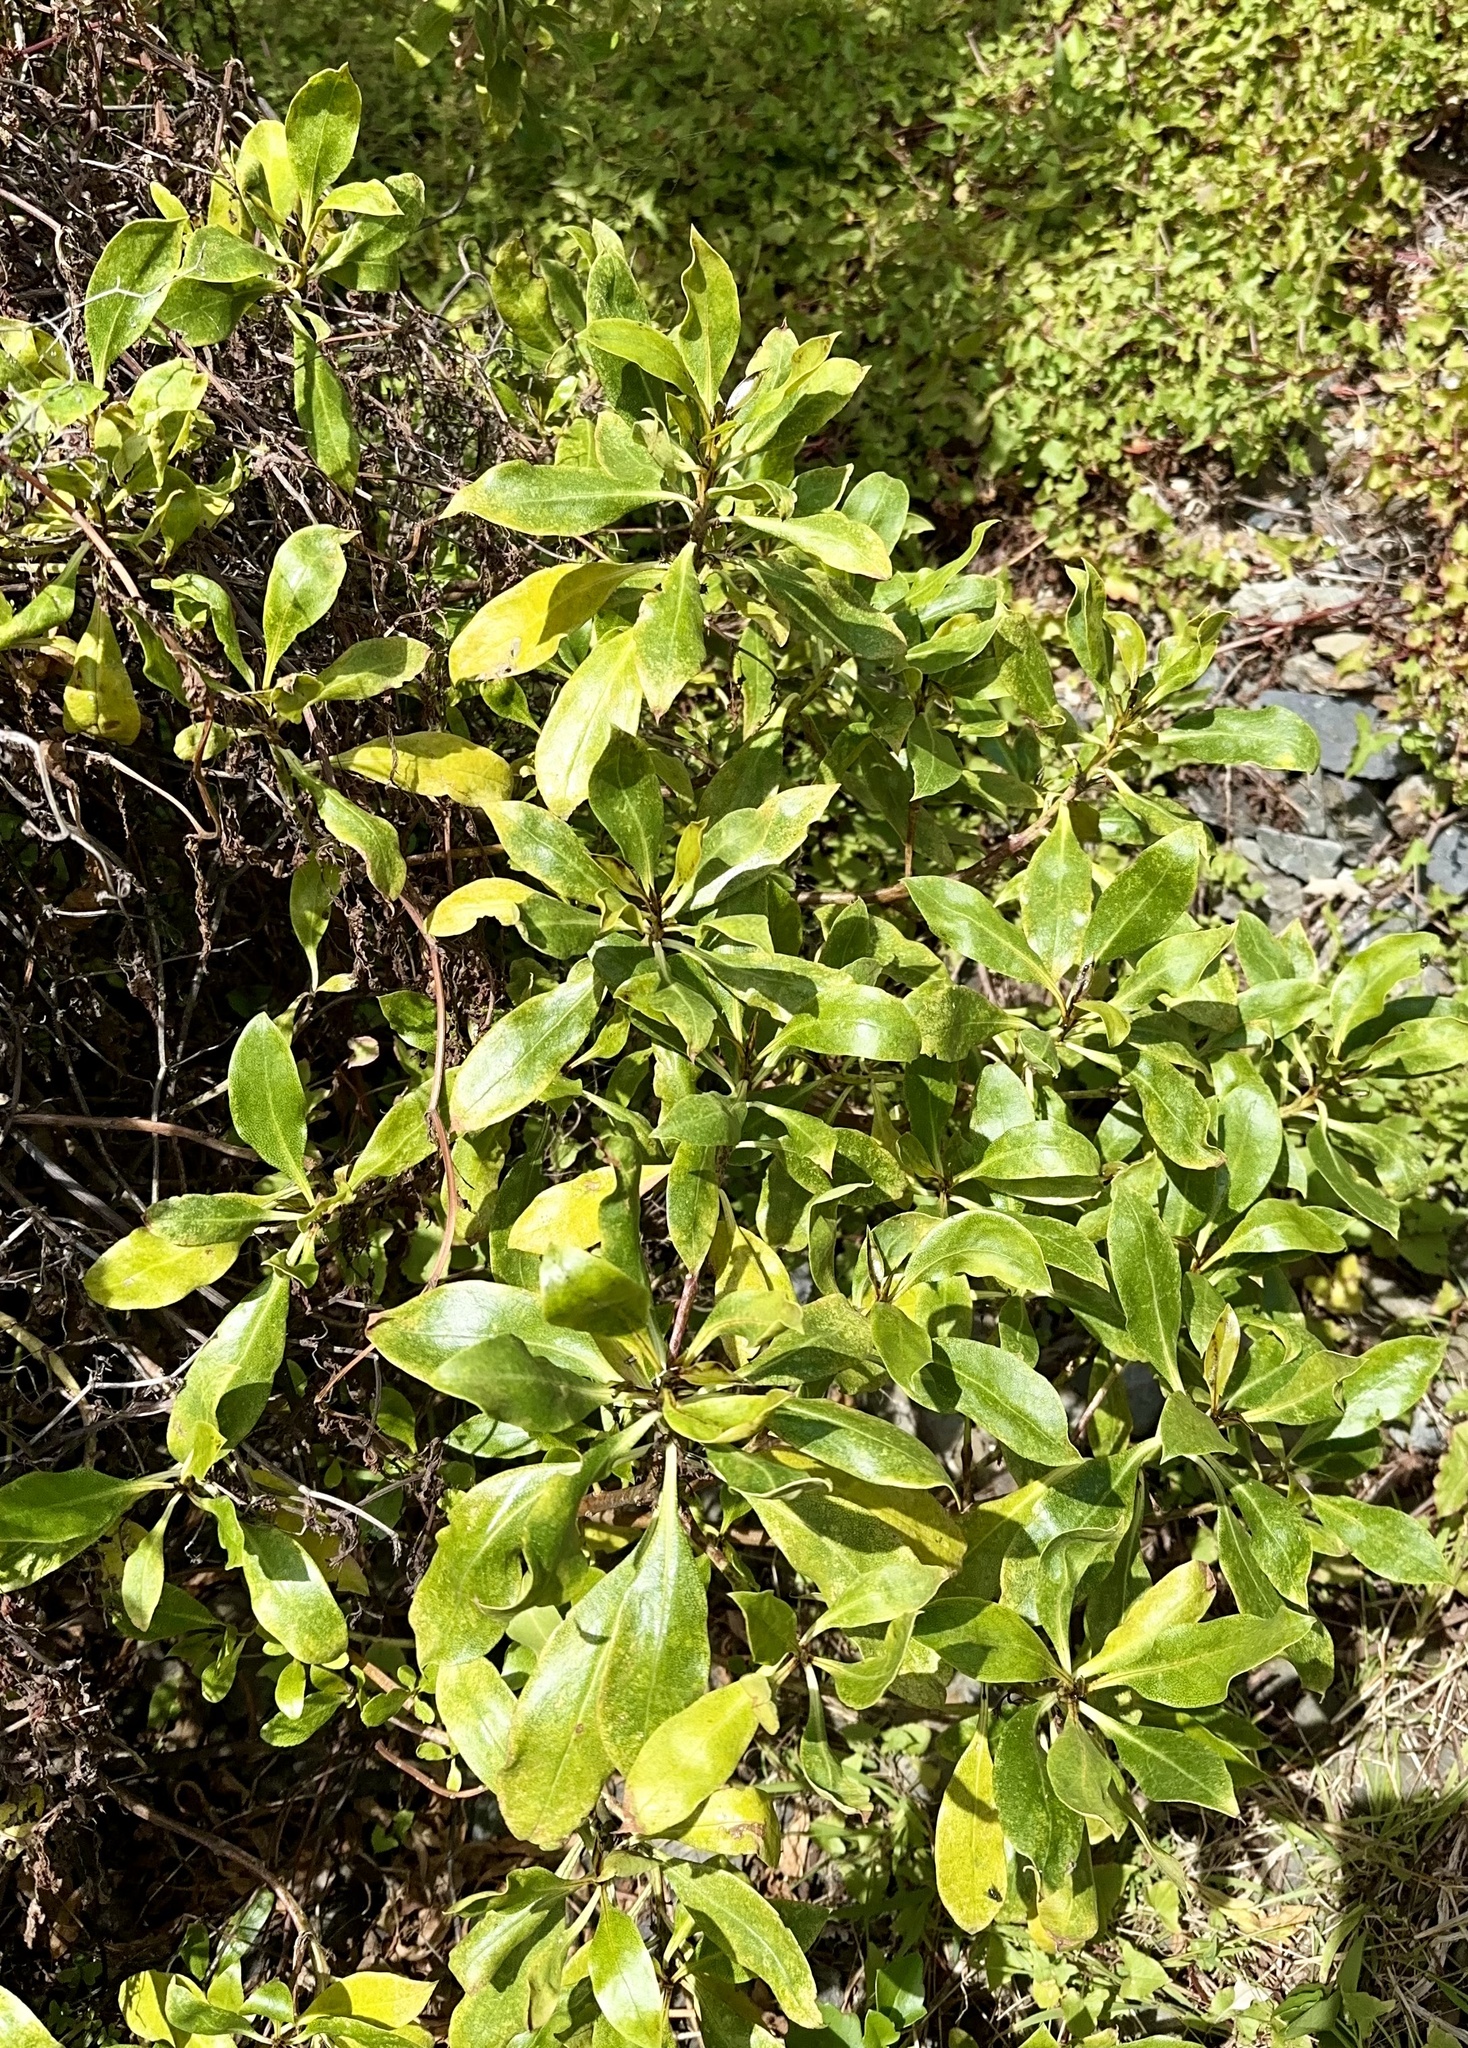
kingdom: Plantae
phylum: Tracheophyta
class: Magnoliopsida
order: Lamiales
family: Scrophulariaceae
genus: Myoporum
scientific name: Myoporum laetum
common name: Ngaio tree
